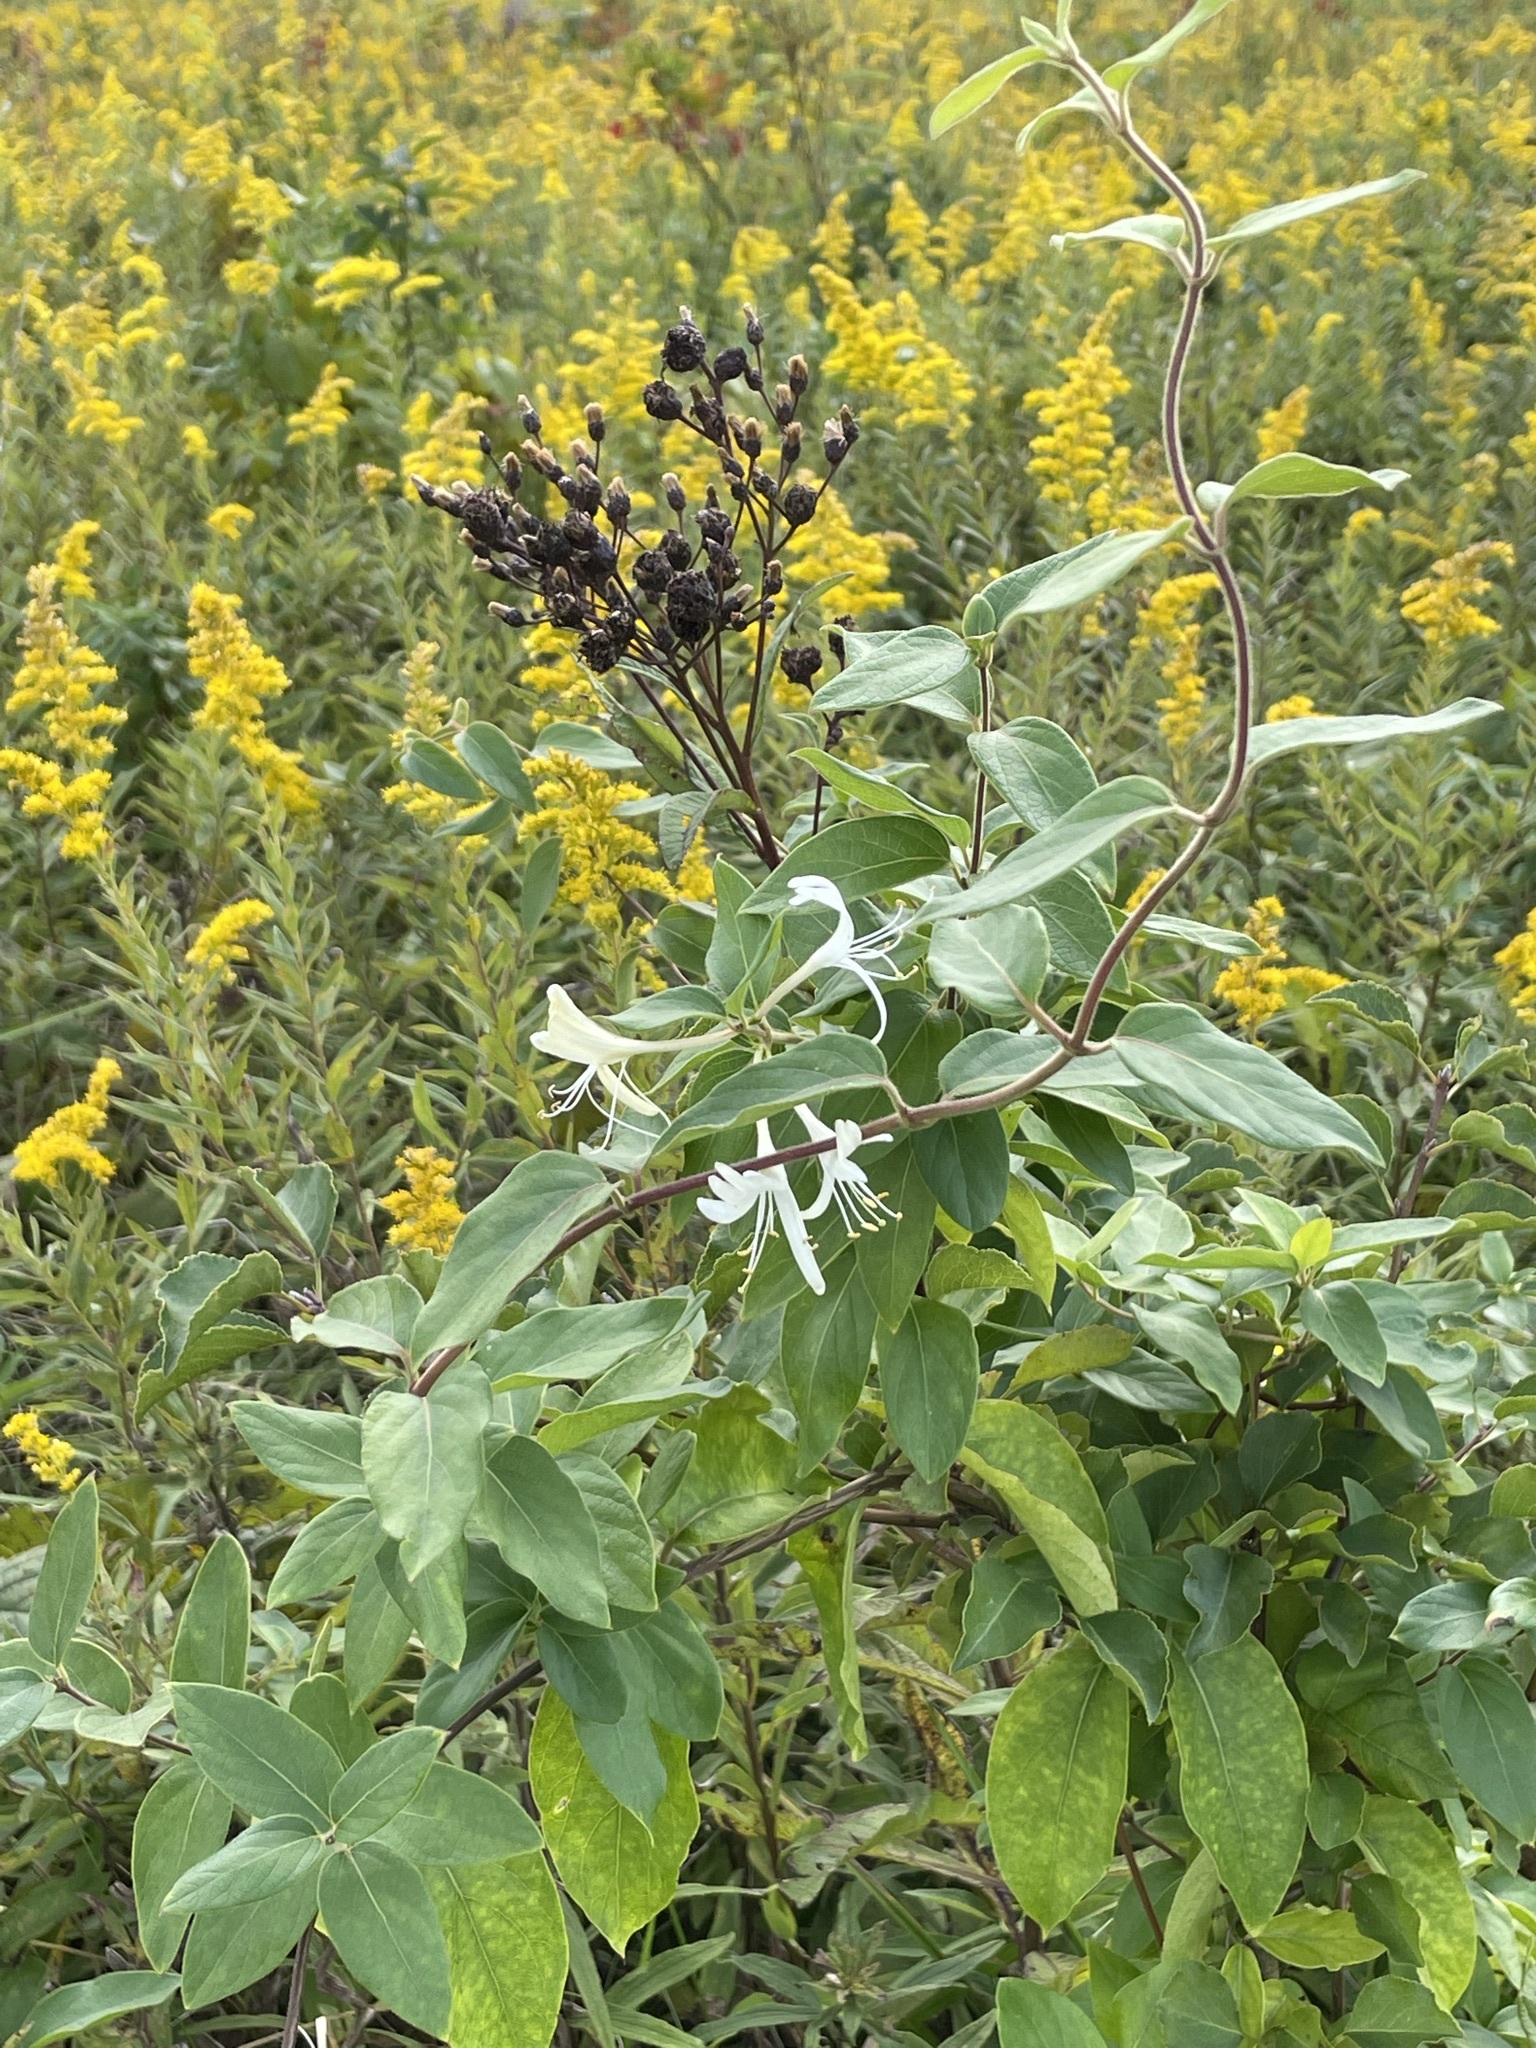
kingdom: Plantae
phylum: Tracheophyta
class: Magnoliopsida
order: Dipsacales
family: Caprifoliaceae
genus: Lonicera
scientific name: Lonicera japonica
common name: Japanese honeysuckle
